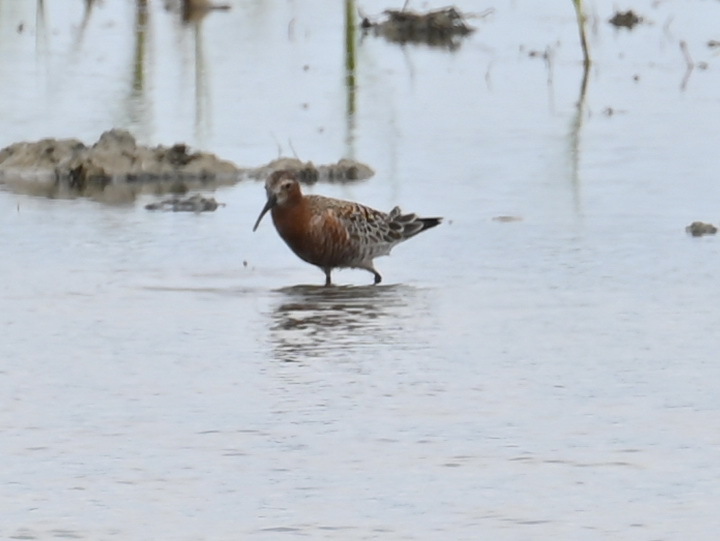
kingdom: Animalia
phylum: Chordata
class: Aves
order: Charadriiformes
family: Scolopacidae
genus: Calidris
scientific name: Calidris ferruginea
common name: Curlew sandpiper
